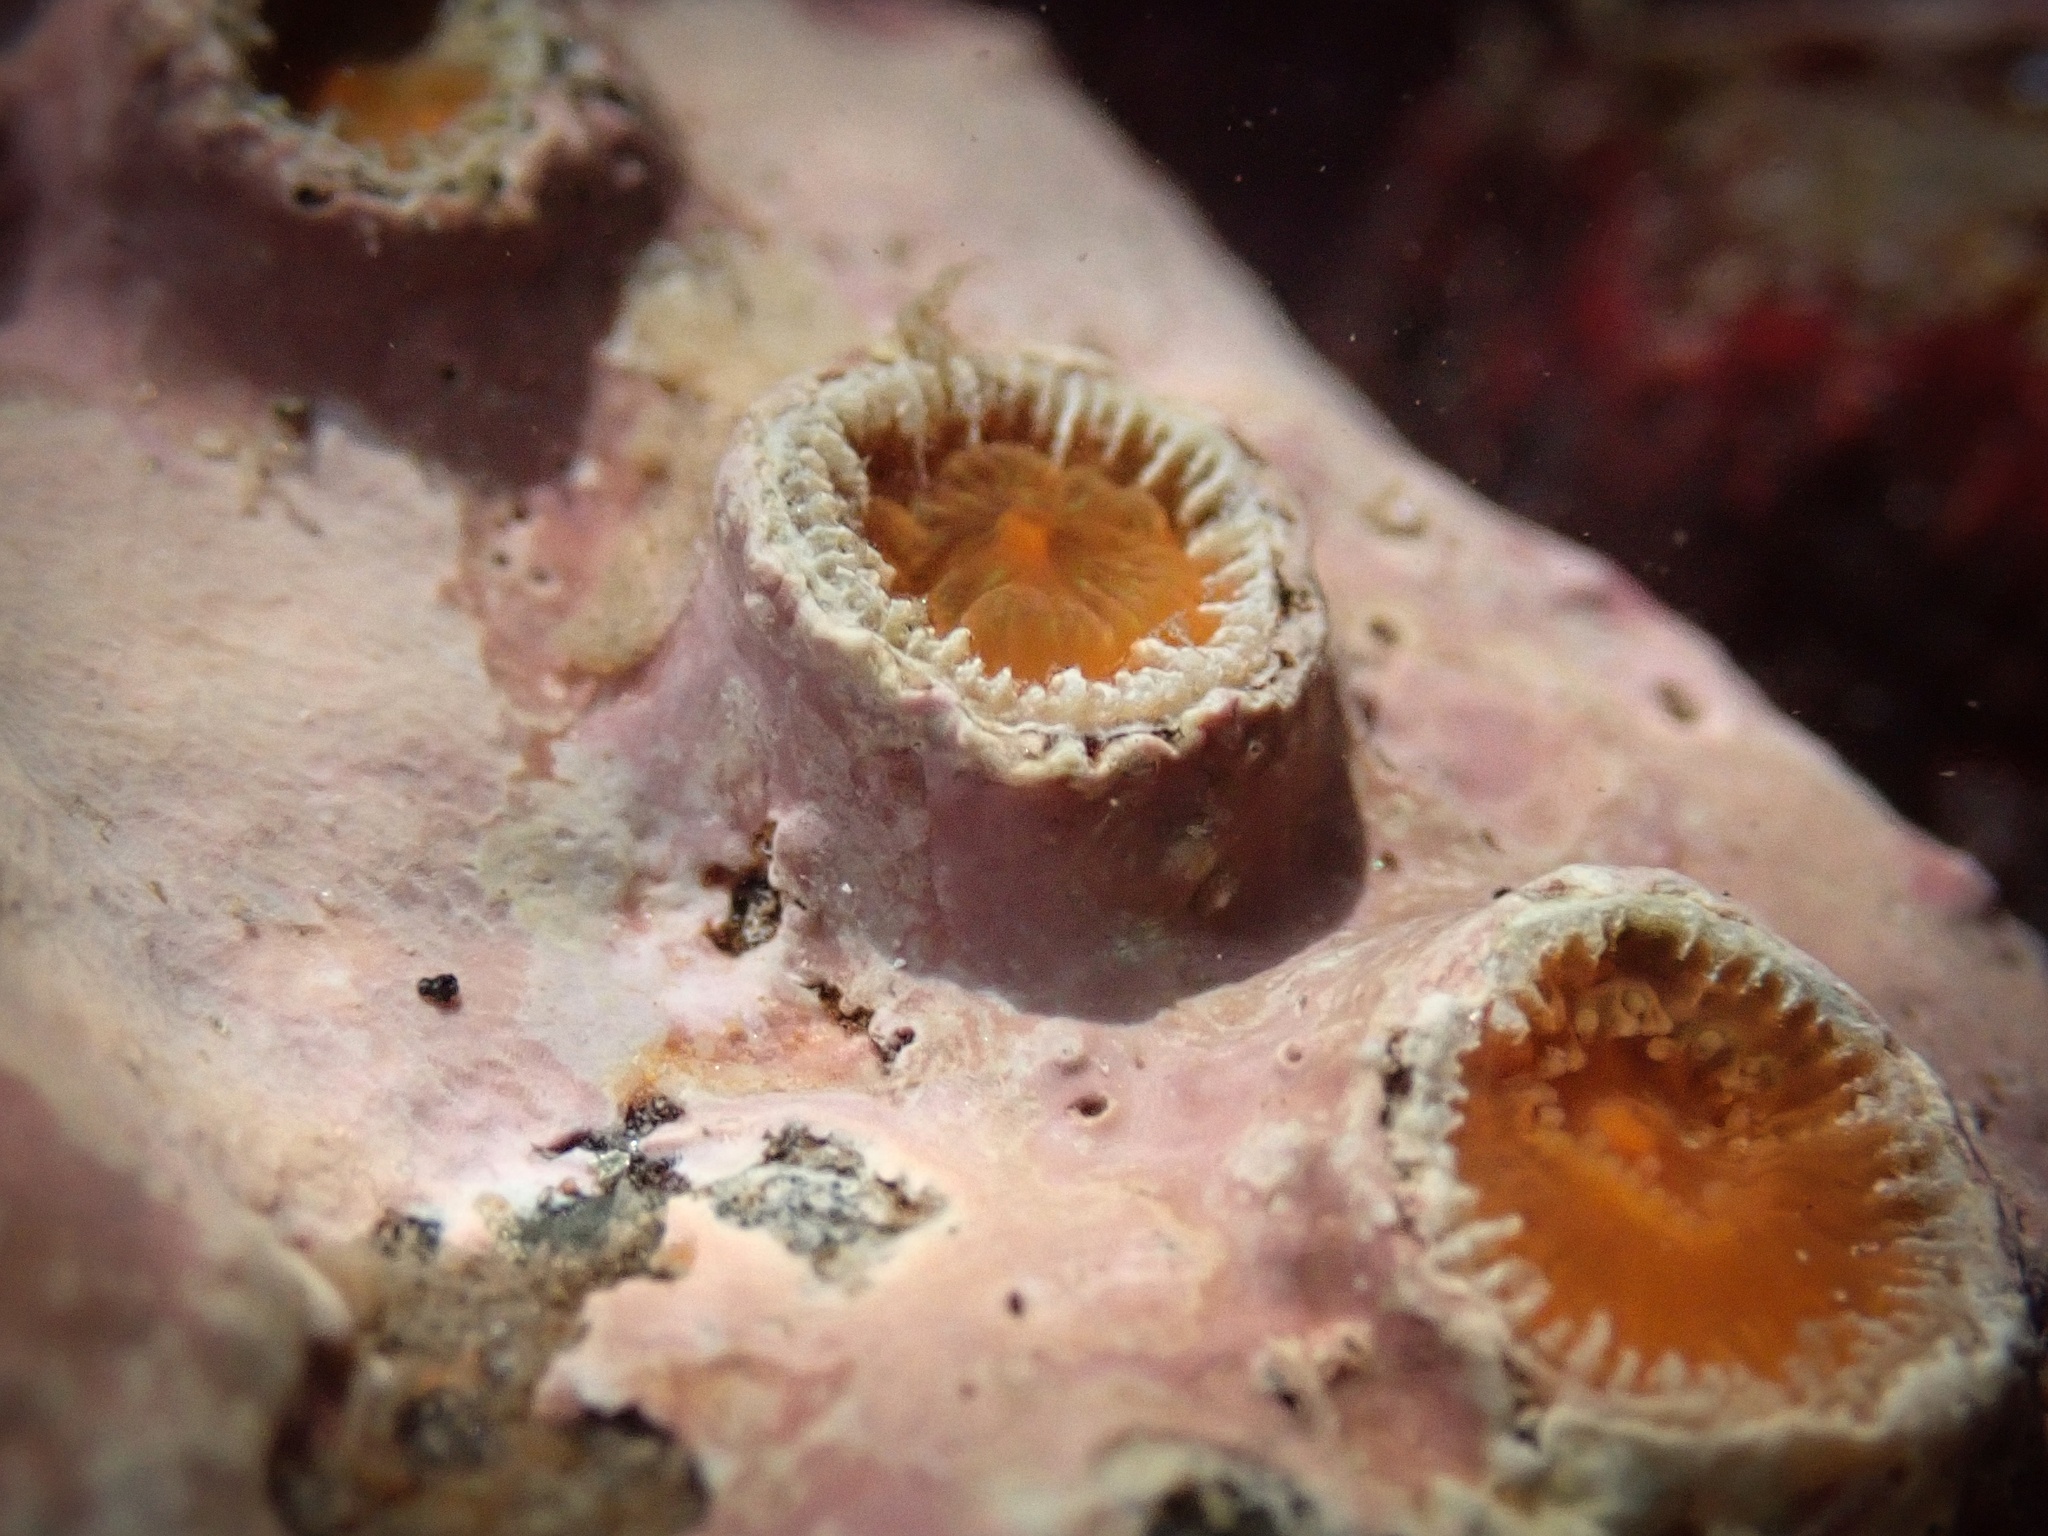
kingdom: Animalia
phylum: Cnidaria
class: Anthozoa
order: Scleractinia
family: Astrangiidae
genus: Astrangia
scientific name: Astrangia haimei
